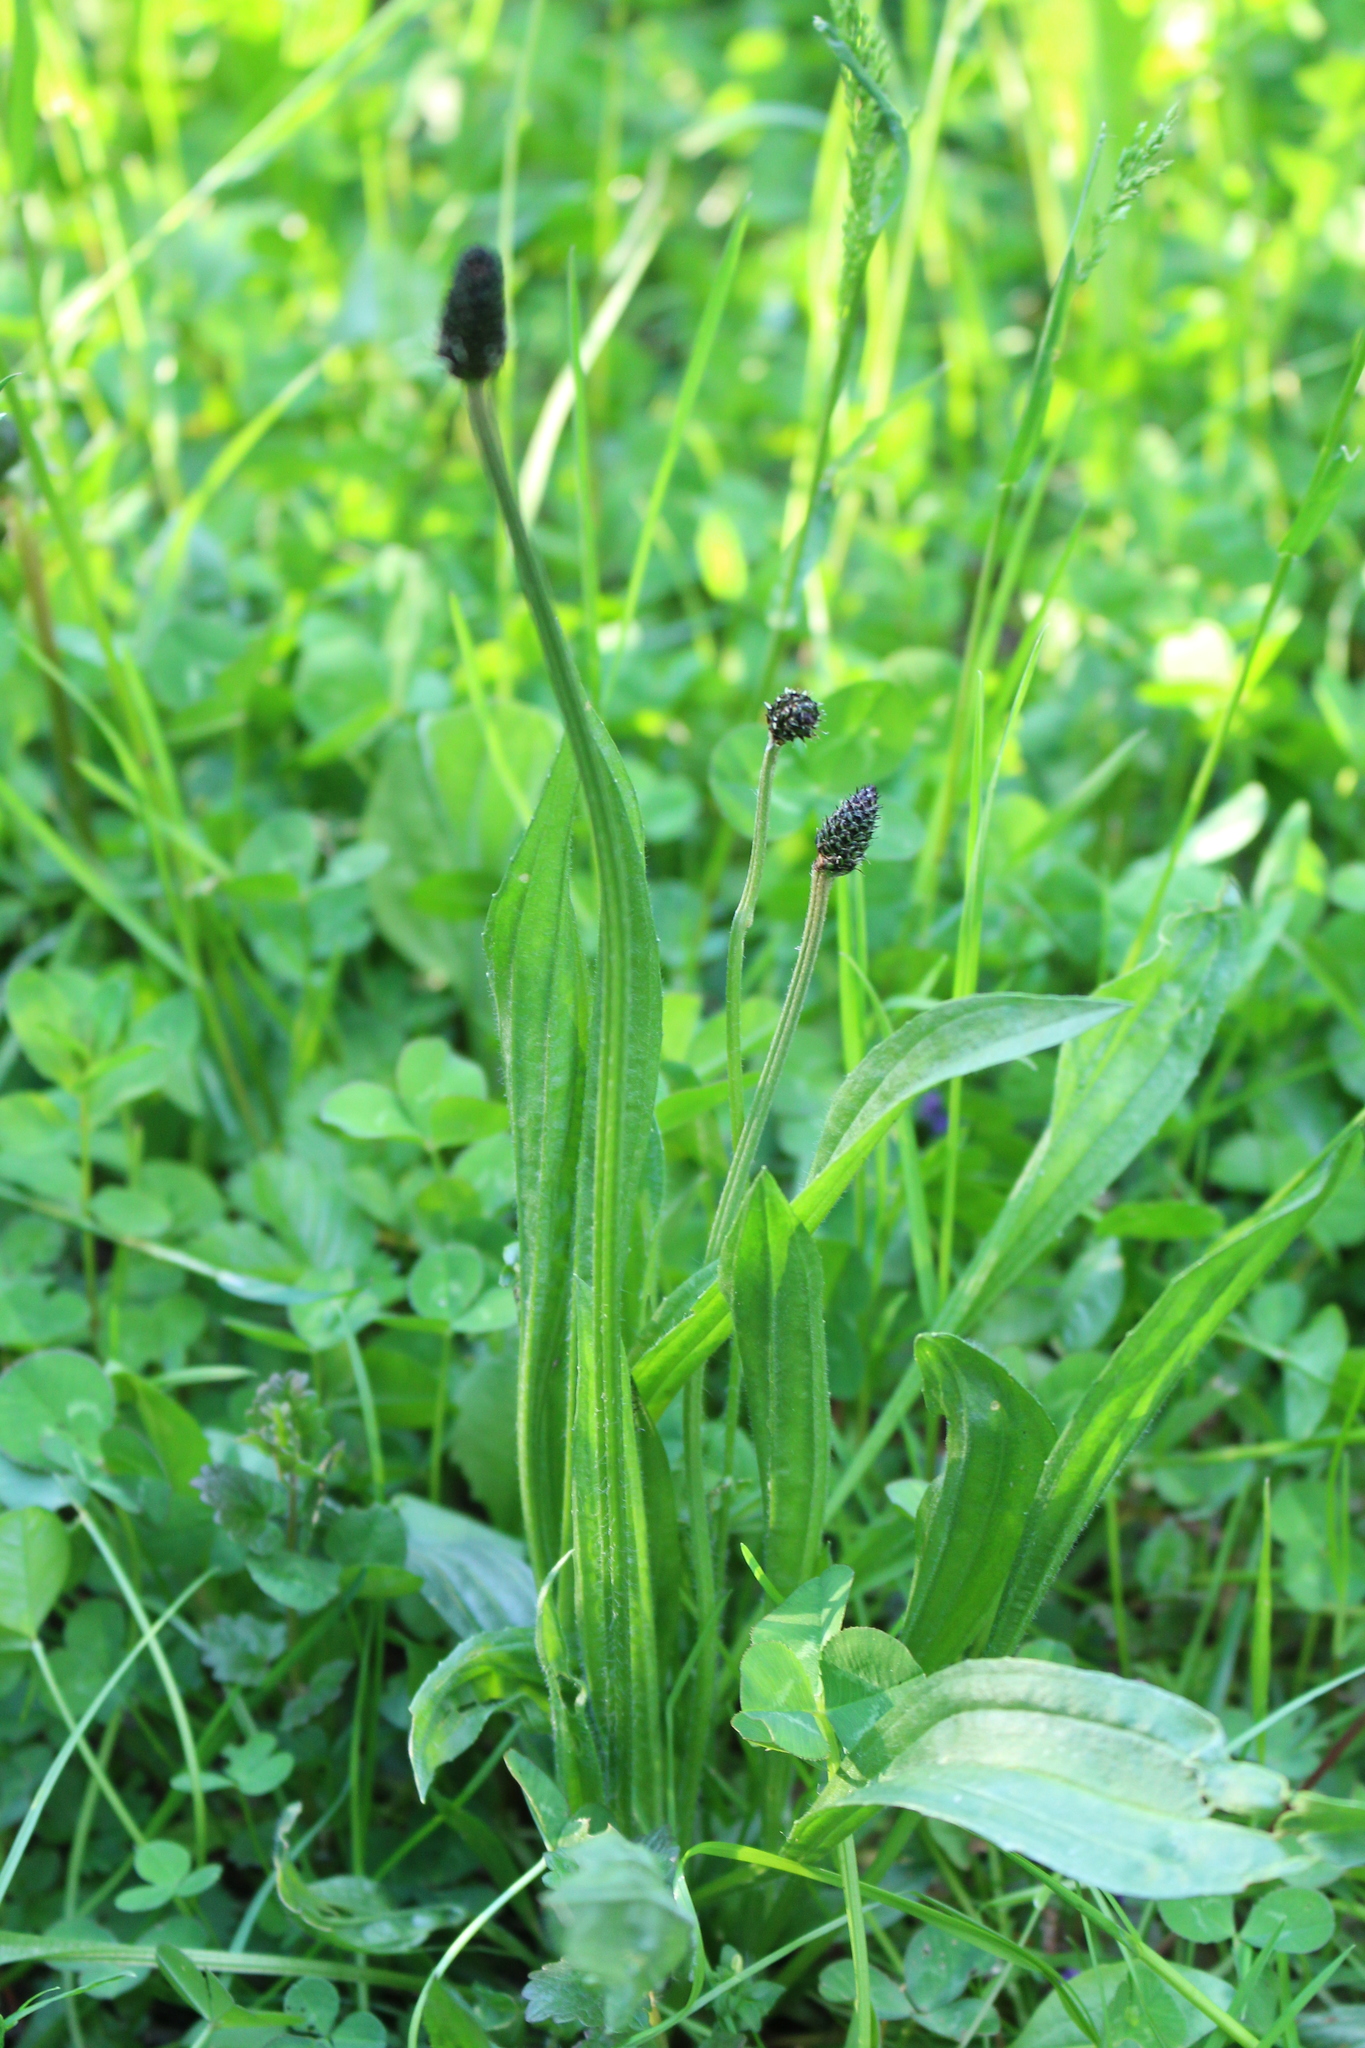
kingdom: Plantae
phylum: Tracheophyta
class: Magnoliopsida
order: Lamiales
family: Plantaginaceae
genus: Plantago
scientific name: Plantago lanceolata
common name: Ribwort plantain
